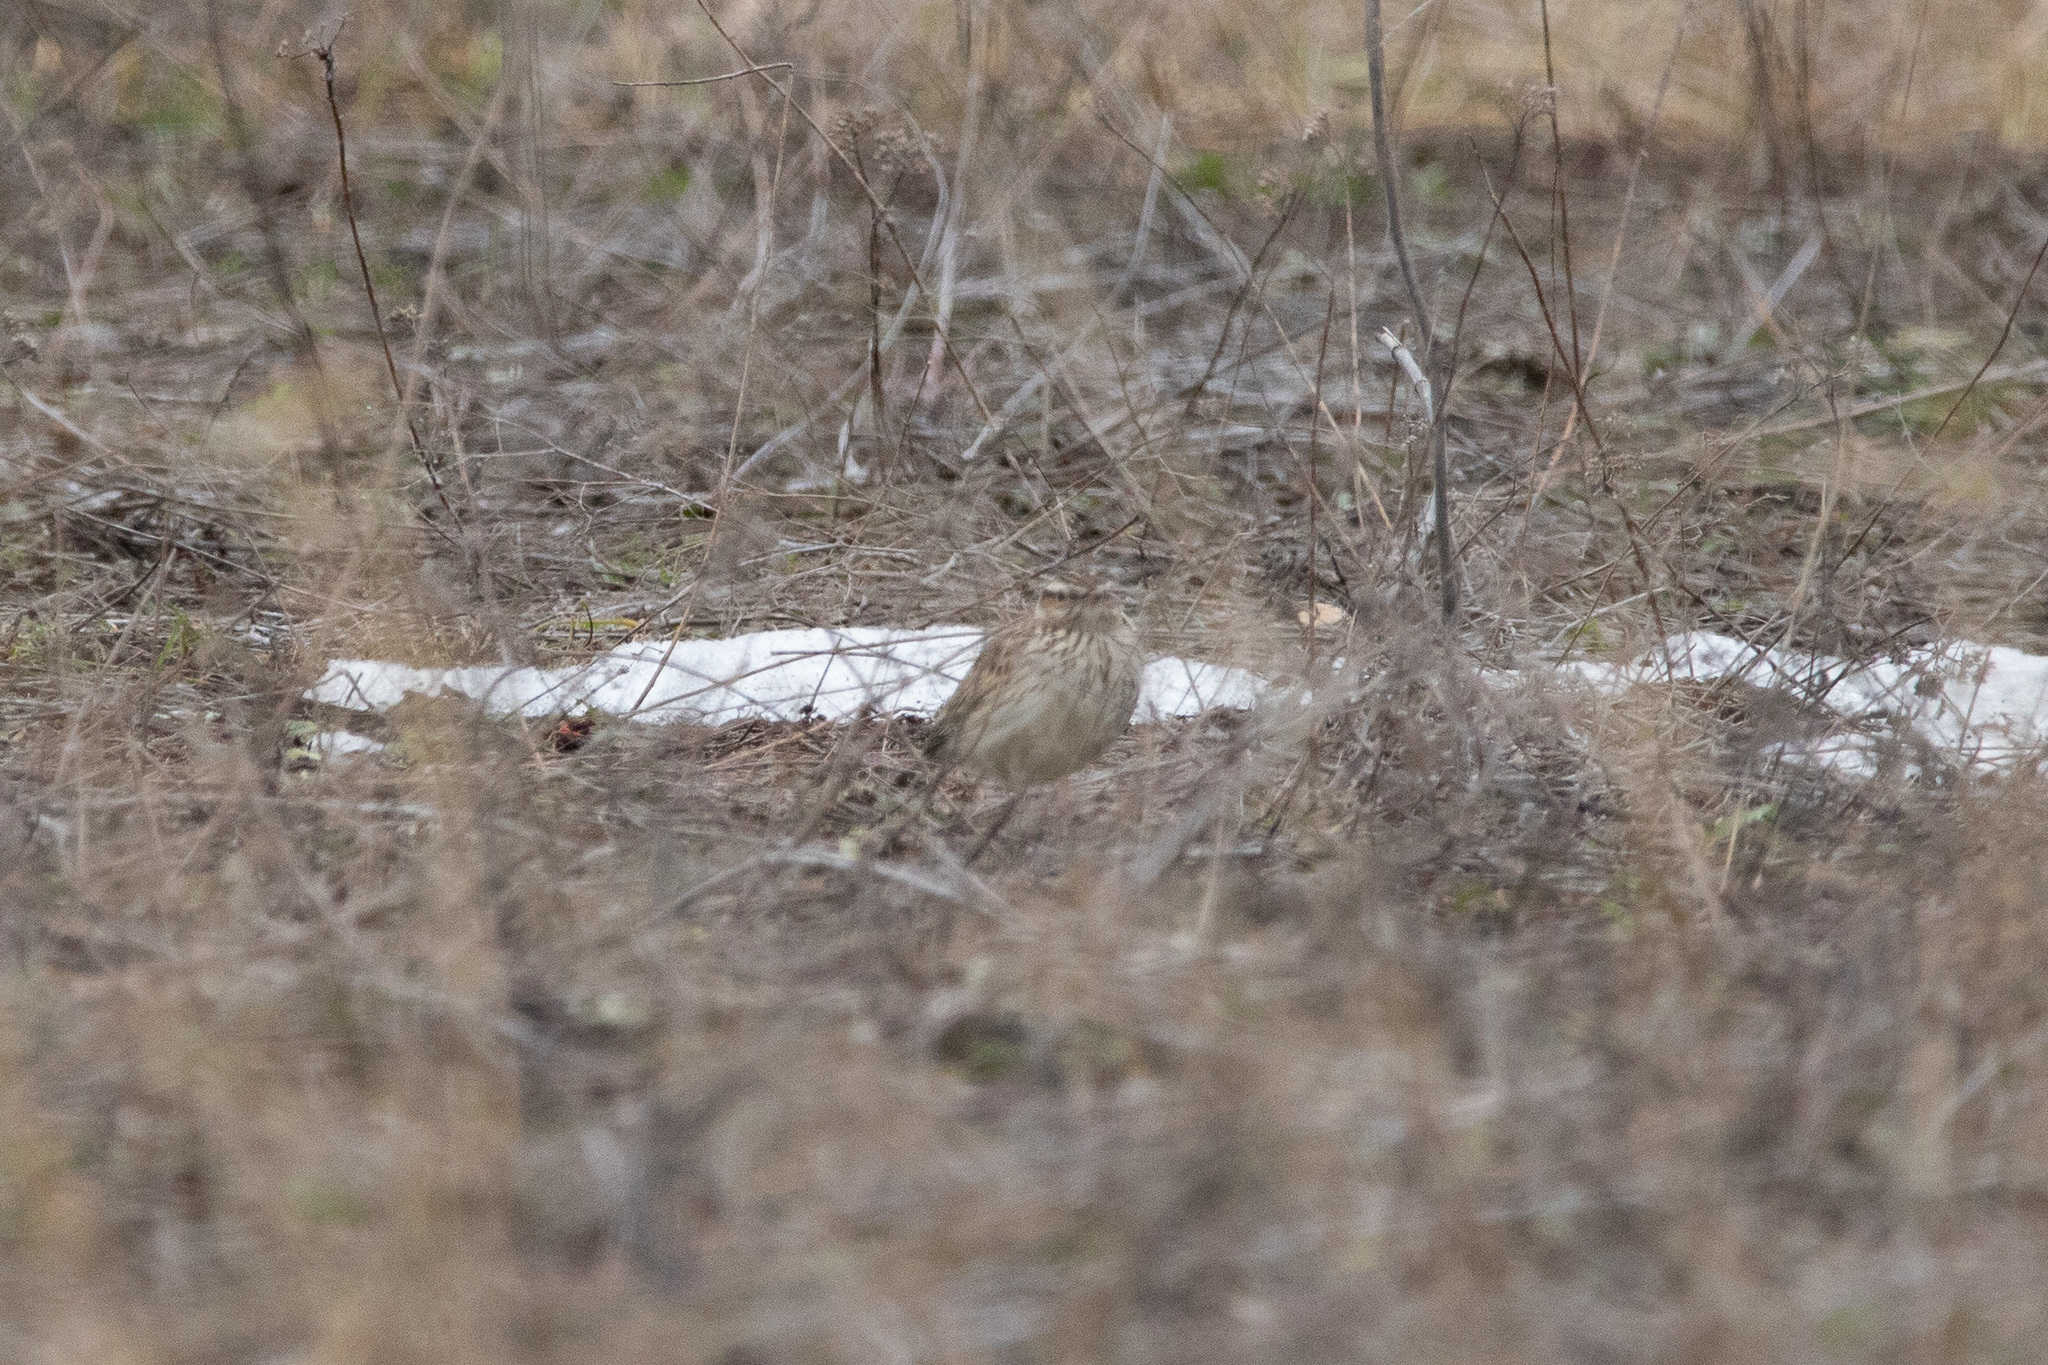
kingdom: Animalia
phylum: Chordata
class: Aves
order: Passeriformes
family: Alaudidae
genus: Lullula
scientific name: Lullula arborea
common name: Woodlark
